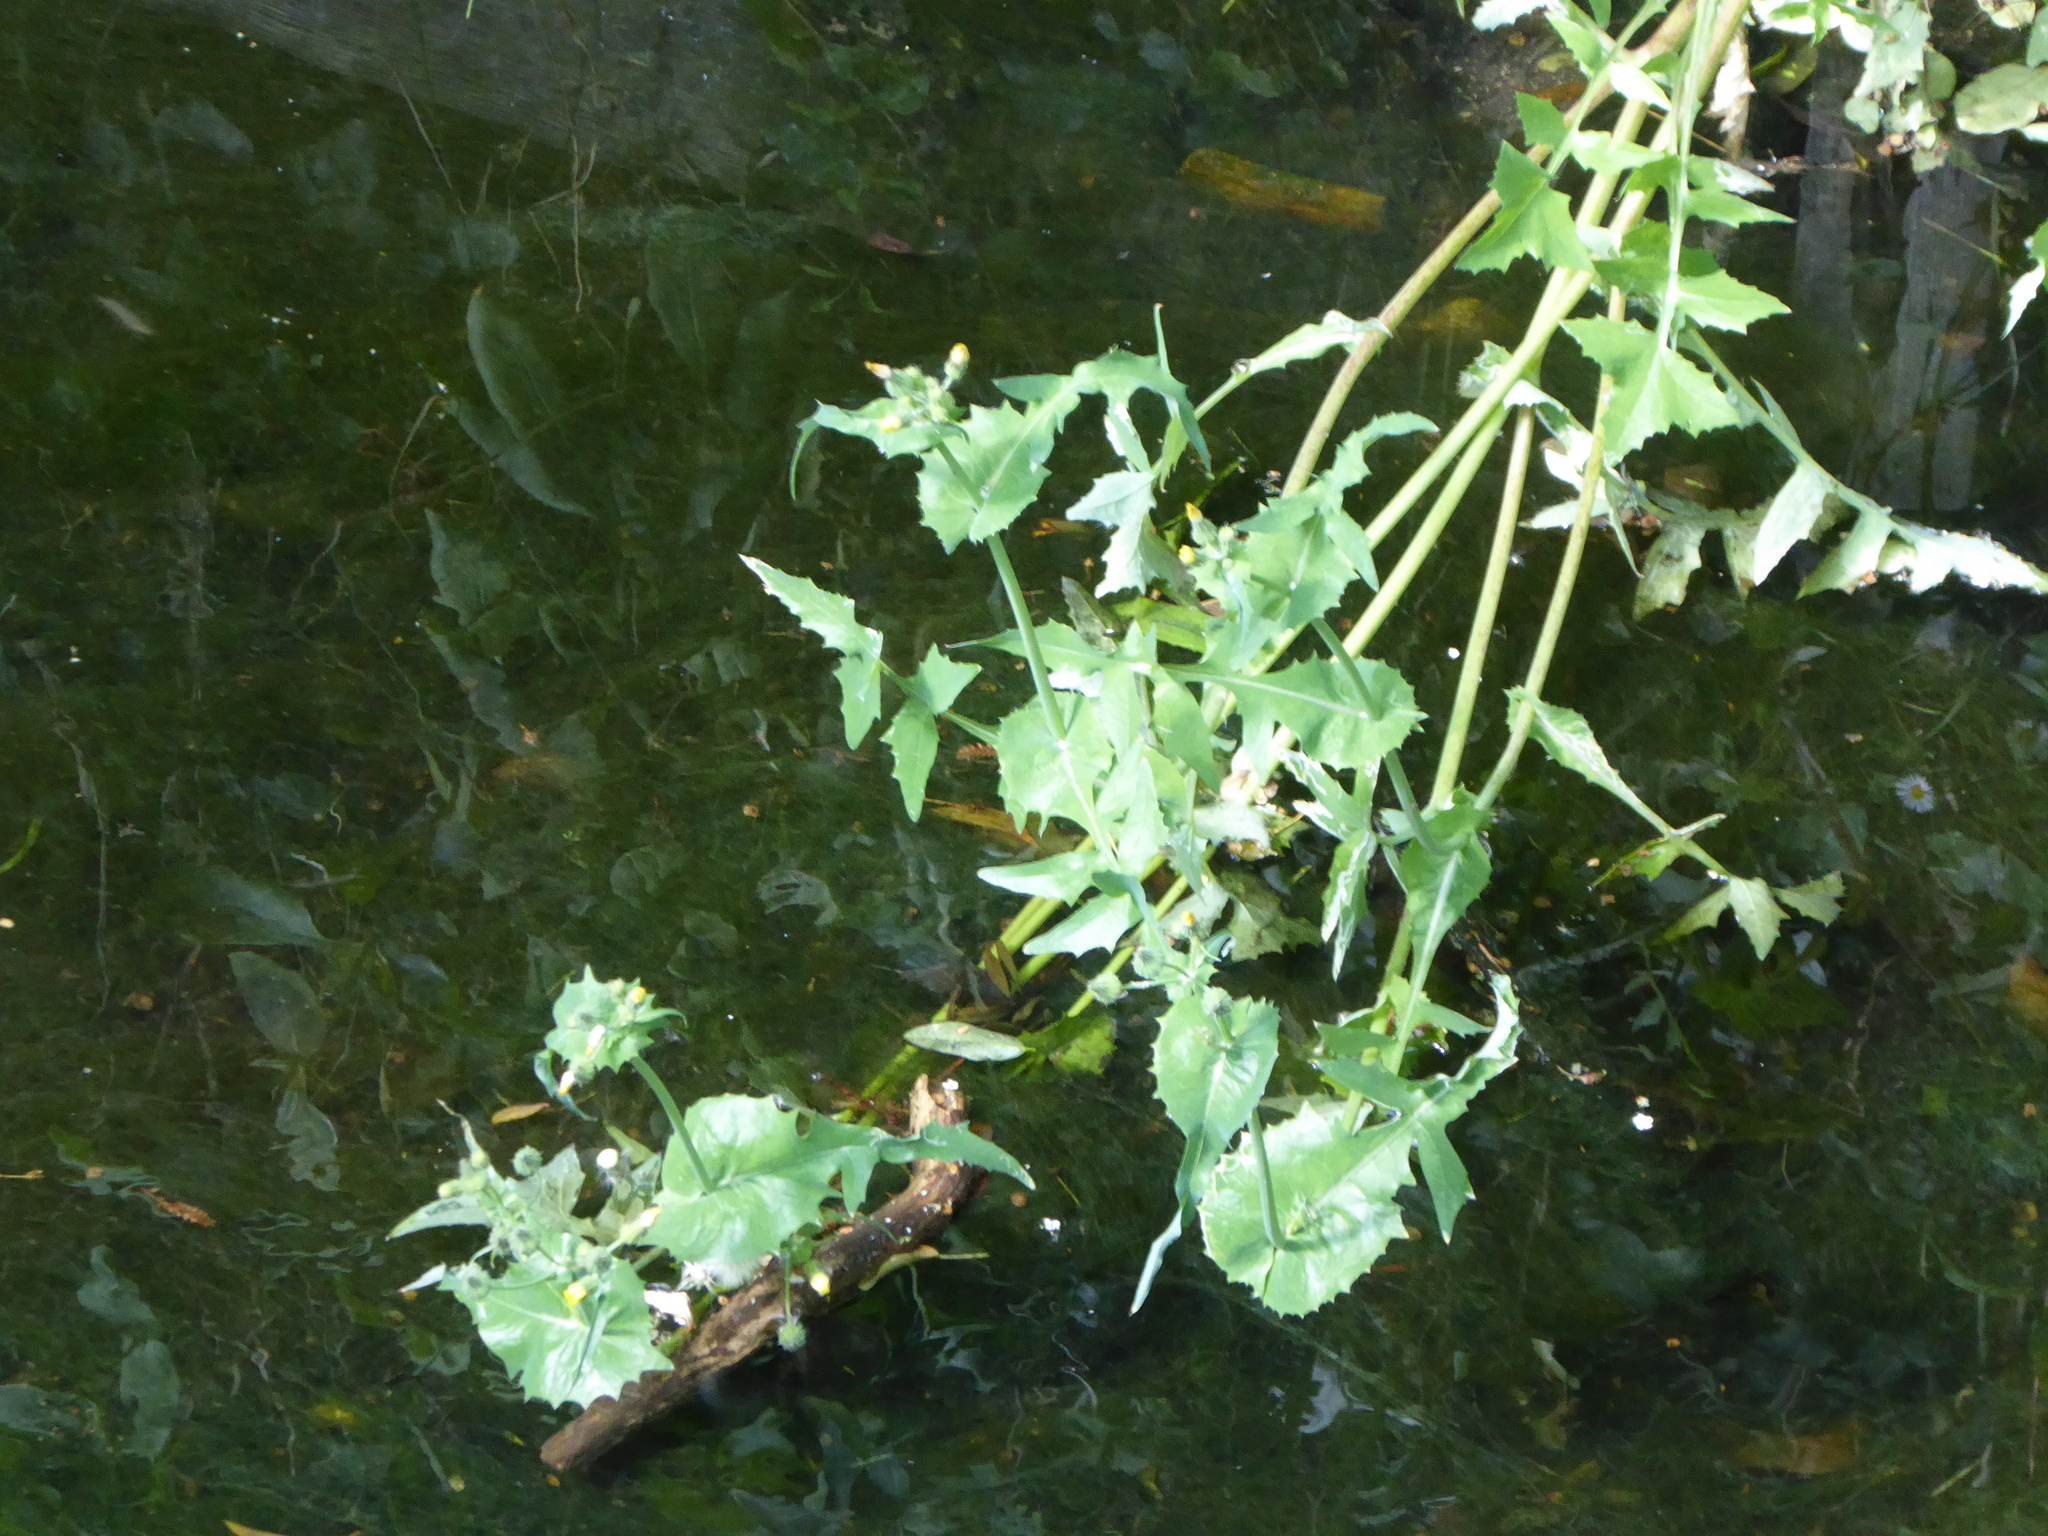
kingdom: Plantae
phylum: Tracheophyta
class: Magnoliopsida
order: Asterales
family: Asteraceae
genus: Sonchus
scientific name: Sonchus oleraceus
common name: Common sowthistle
